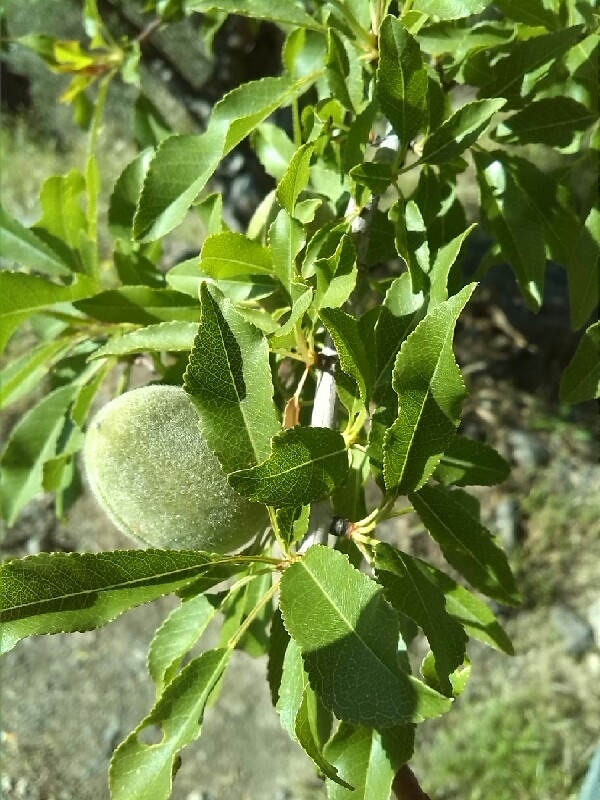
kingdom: Plantae
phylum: Tracheophyta
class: Magnoliopsida
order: Rosales
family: Rosaceae
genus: Prunus
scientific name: Prunus amygdalus
